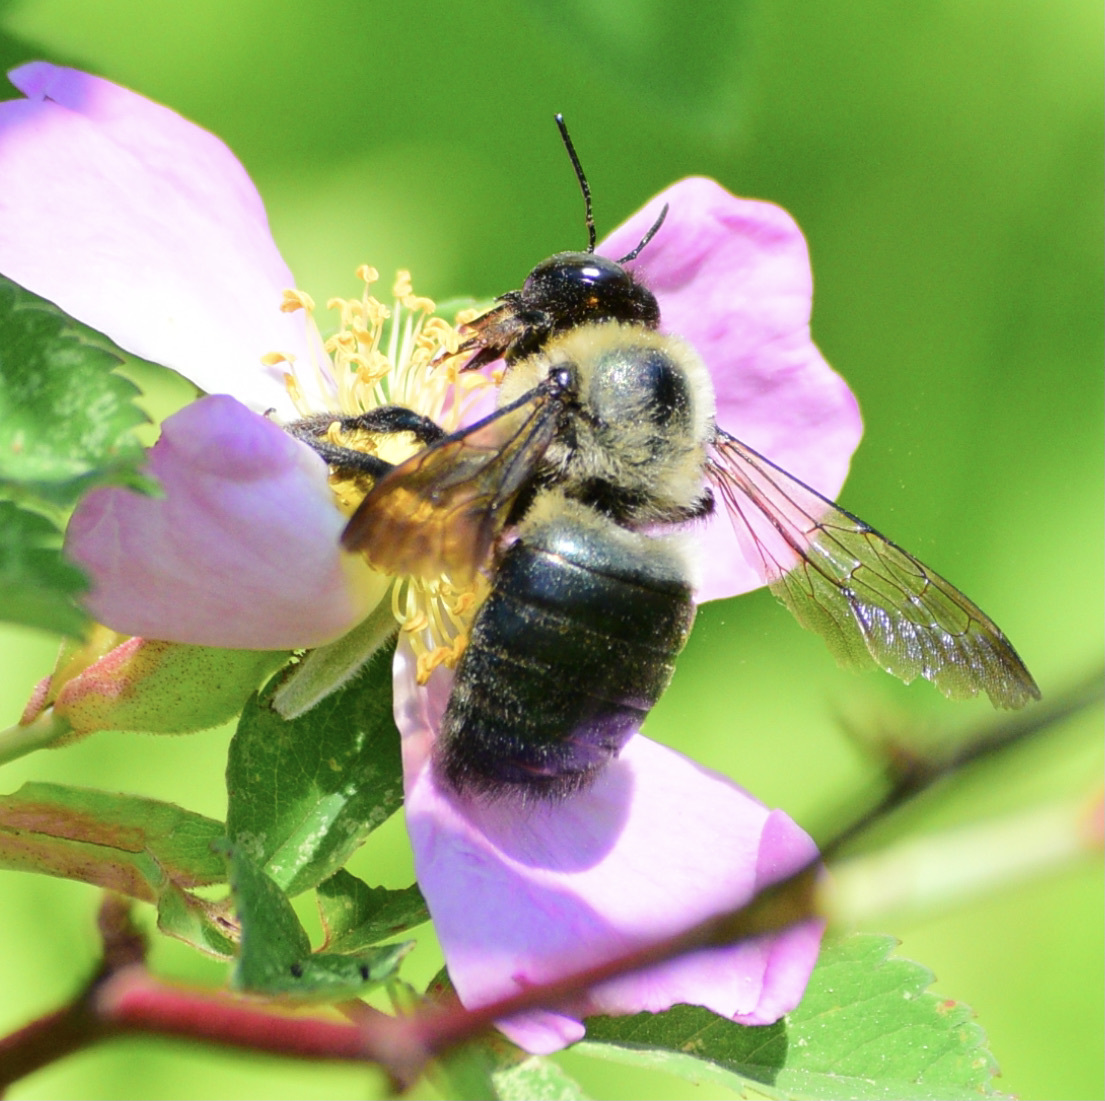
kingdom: Animalia
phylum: Arthropoda
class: Insecta
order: Hymenoptera
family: Apidae
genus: Xylocopa
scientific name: Xylocopa virginica
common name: Carpenter bee
